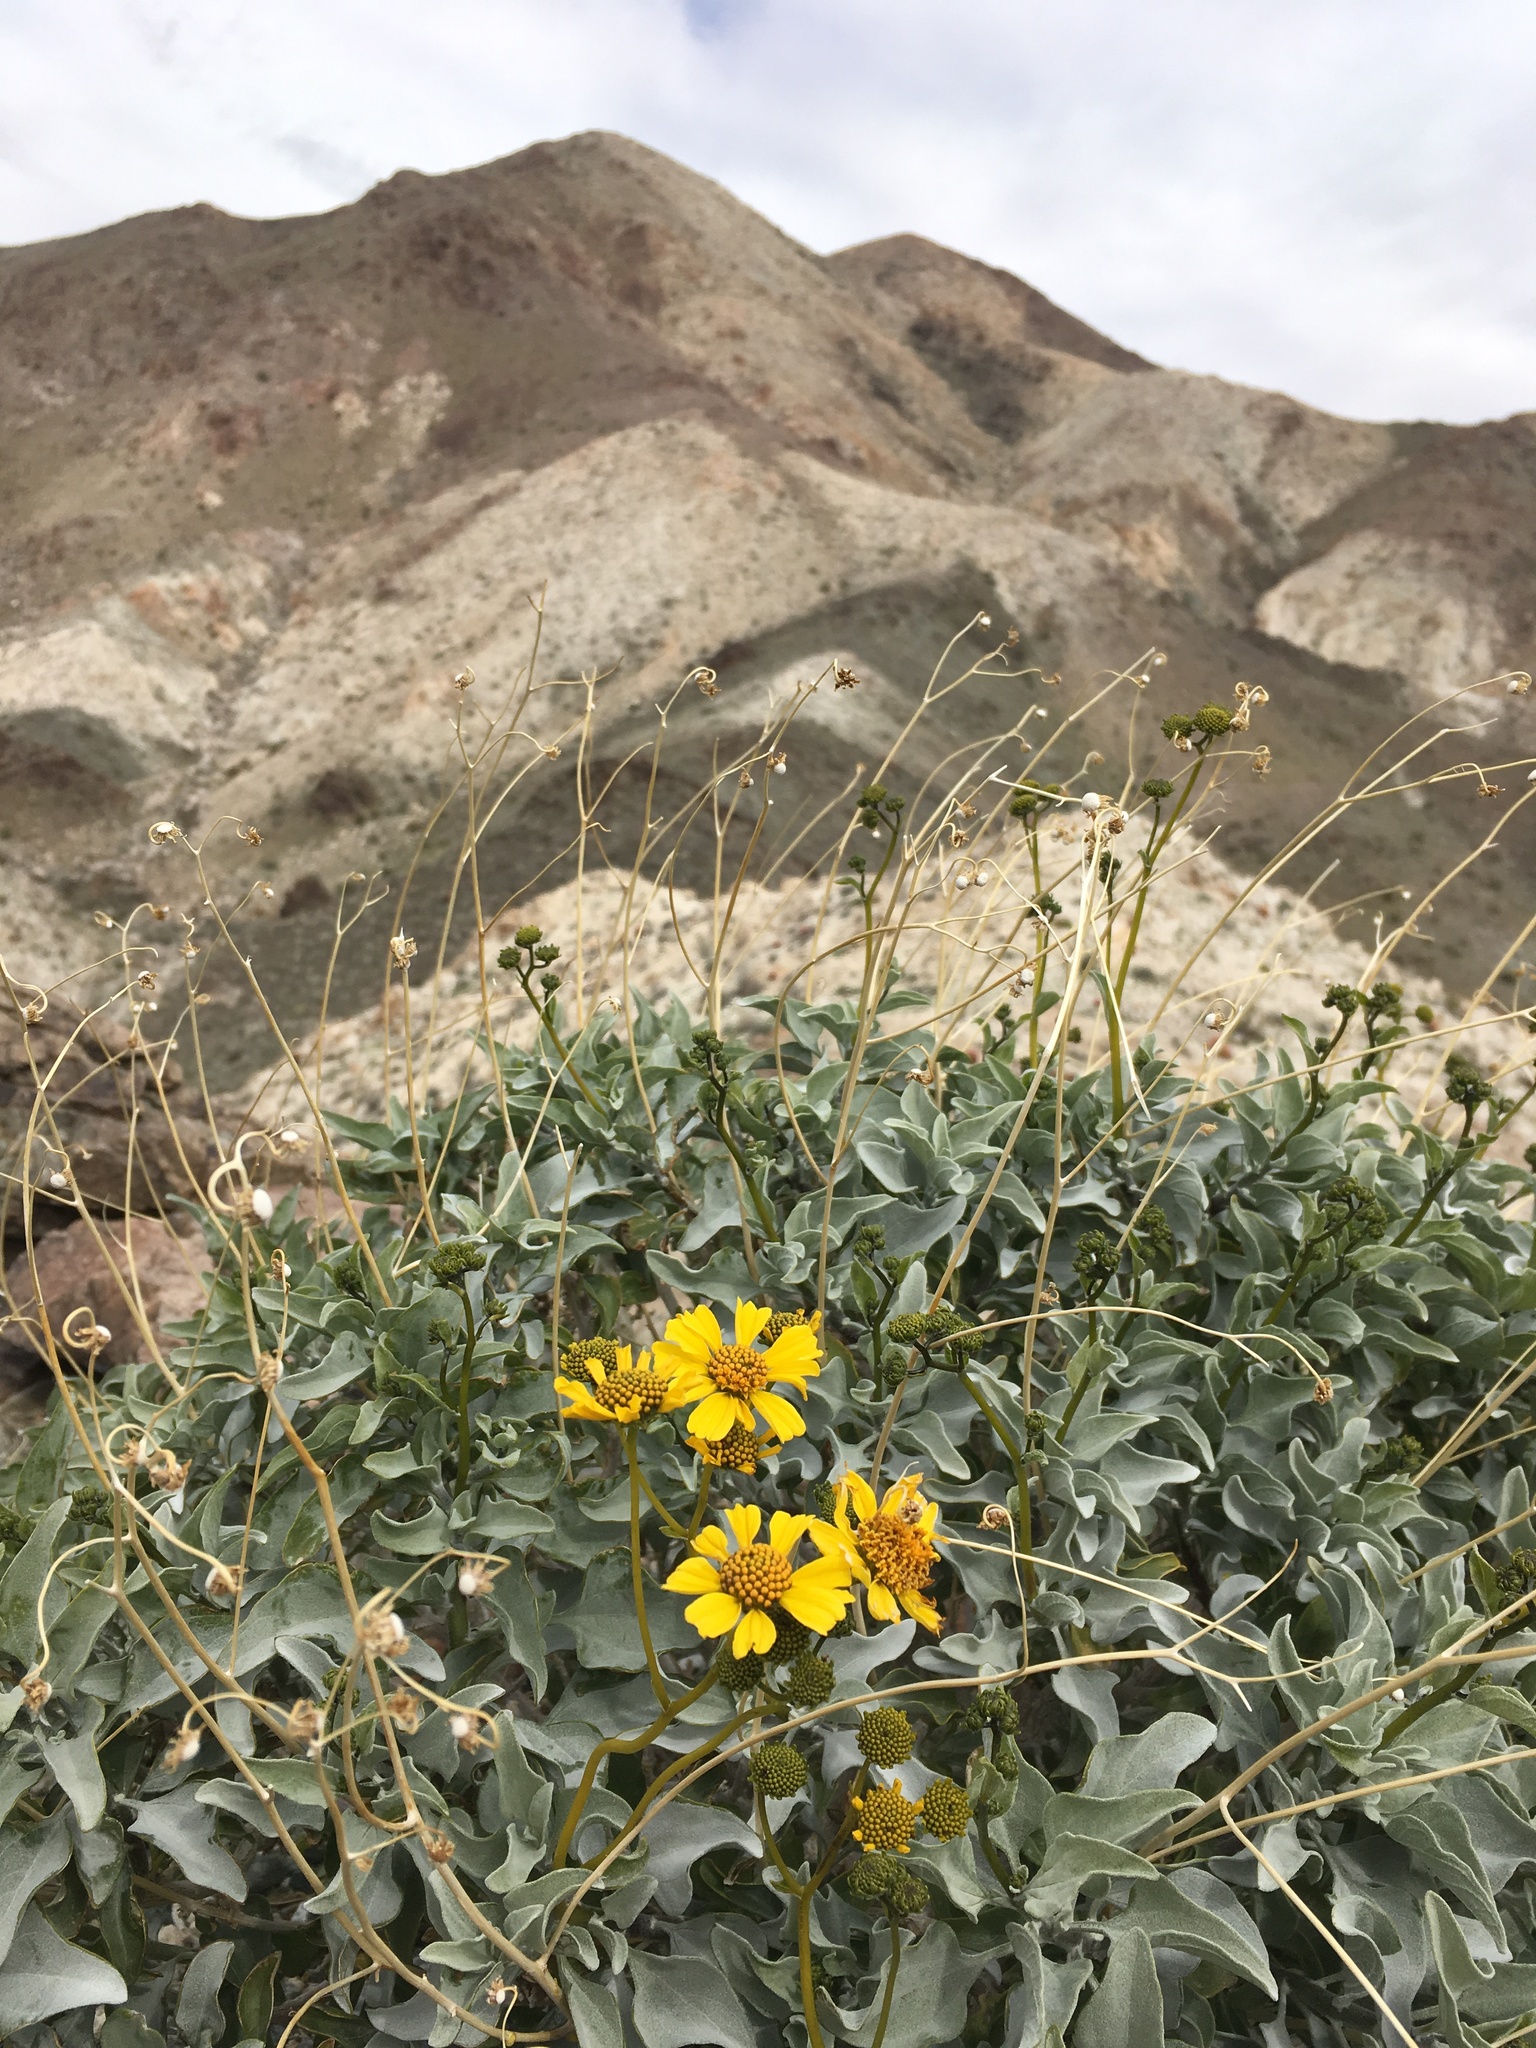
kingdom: Plantae
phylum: Tracheophyta
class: Magnoliopsida
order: Asterales
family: Asteraceae
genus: Encelia
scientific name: Encelia farinosa
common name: Brittlebush
